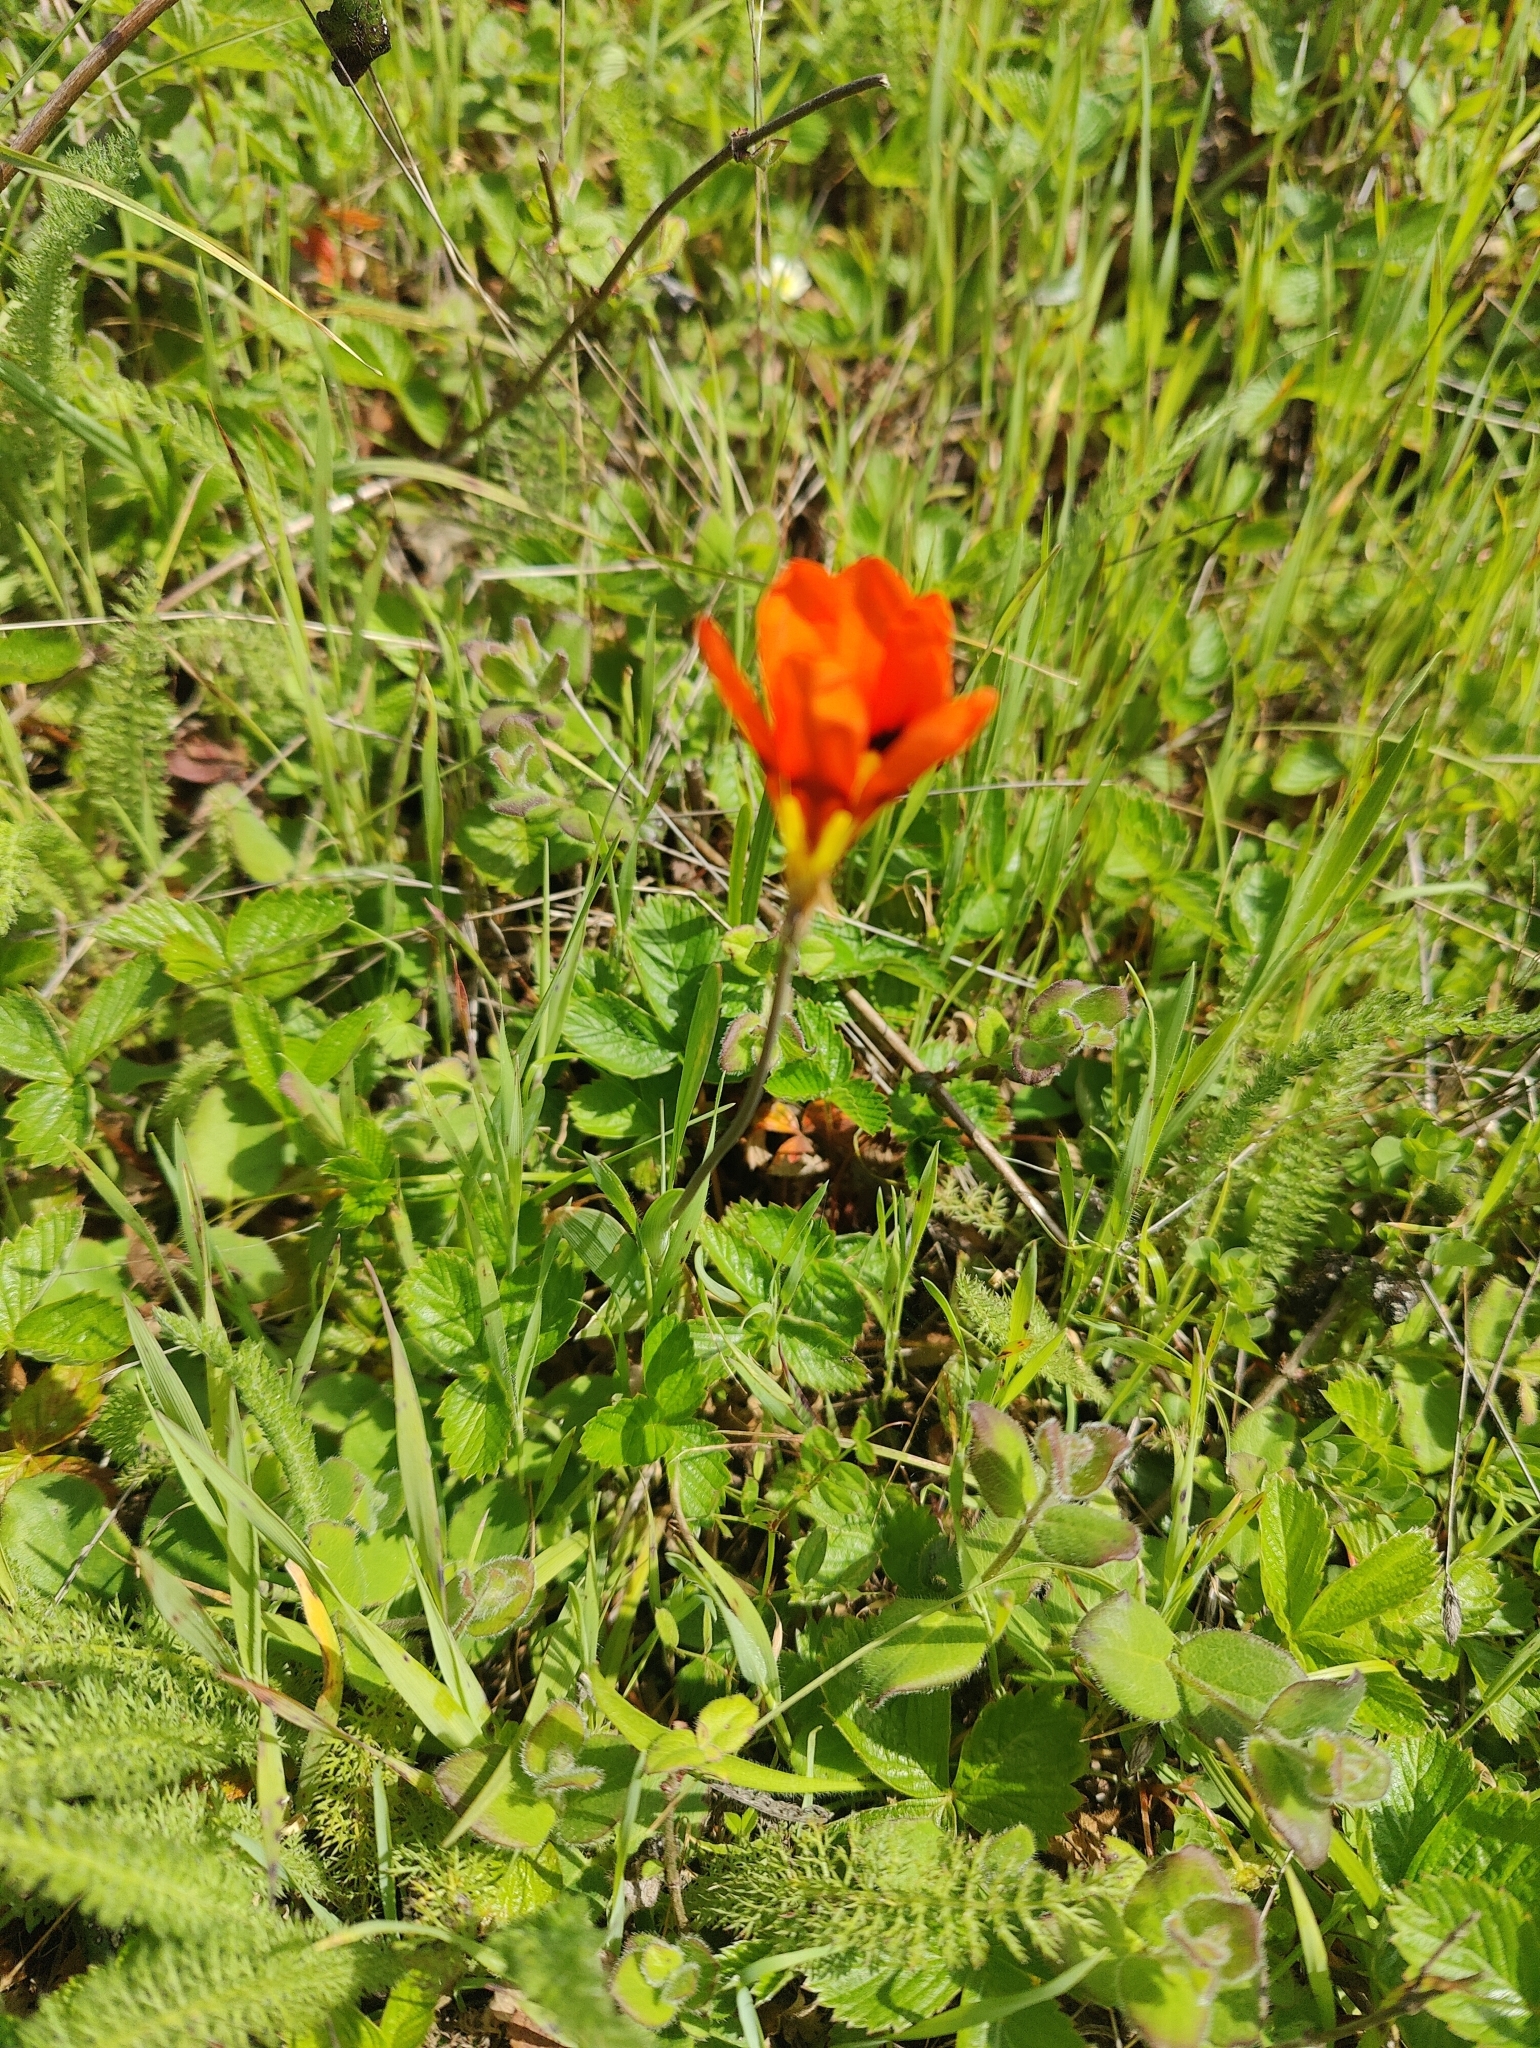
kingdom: Plantae
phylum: Tracheophyta
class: Liliopsida
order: Asparagales
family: Iridaceae
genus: Sparaxis
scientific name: Sparaxis tricolor
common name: Wandflower
